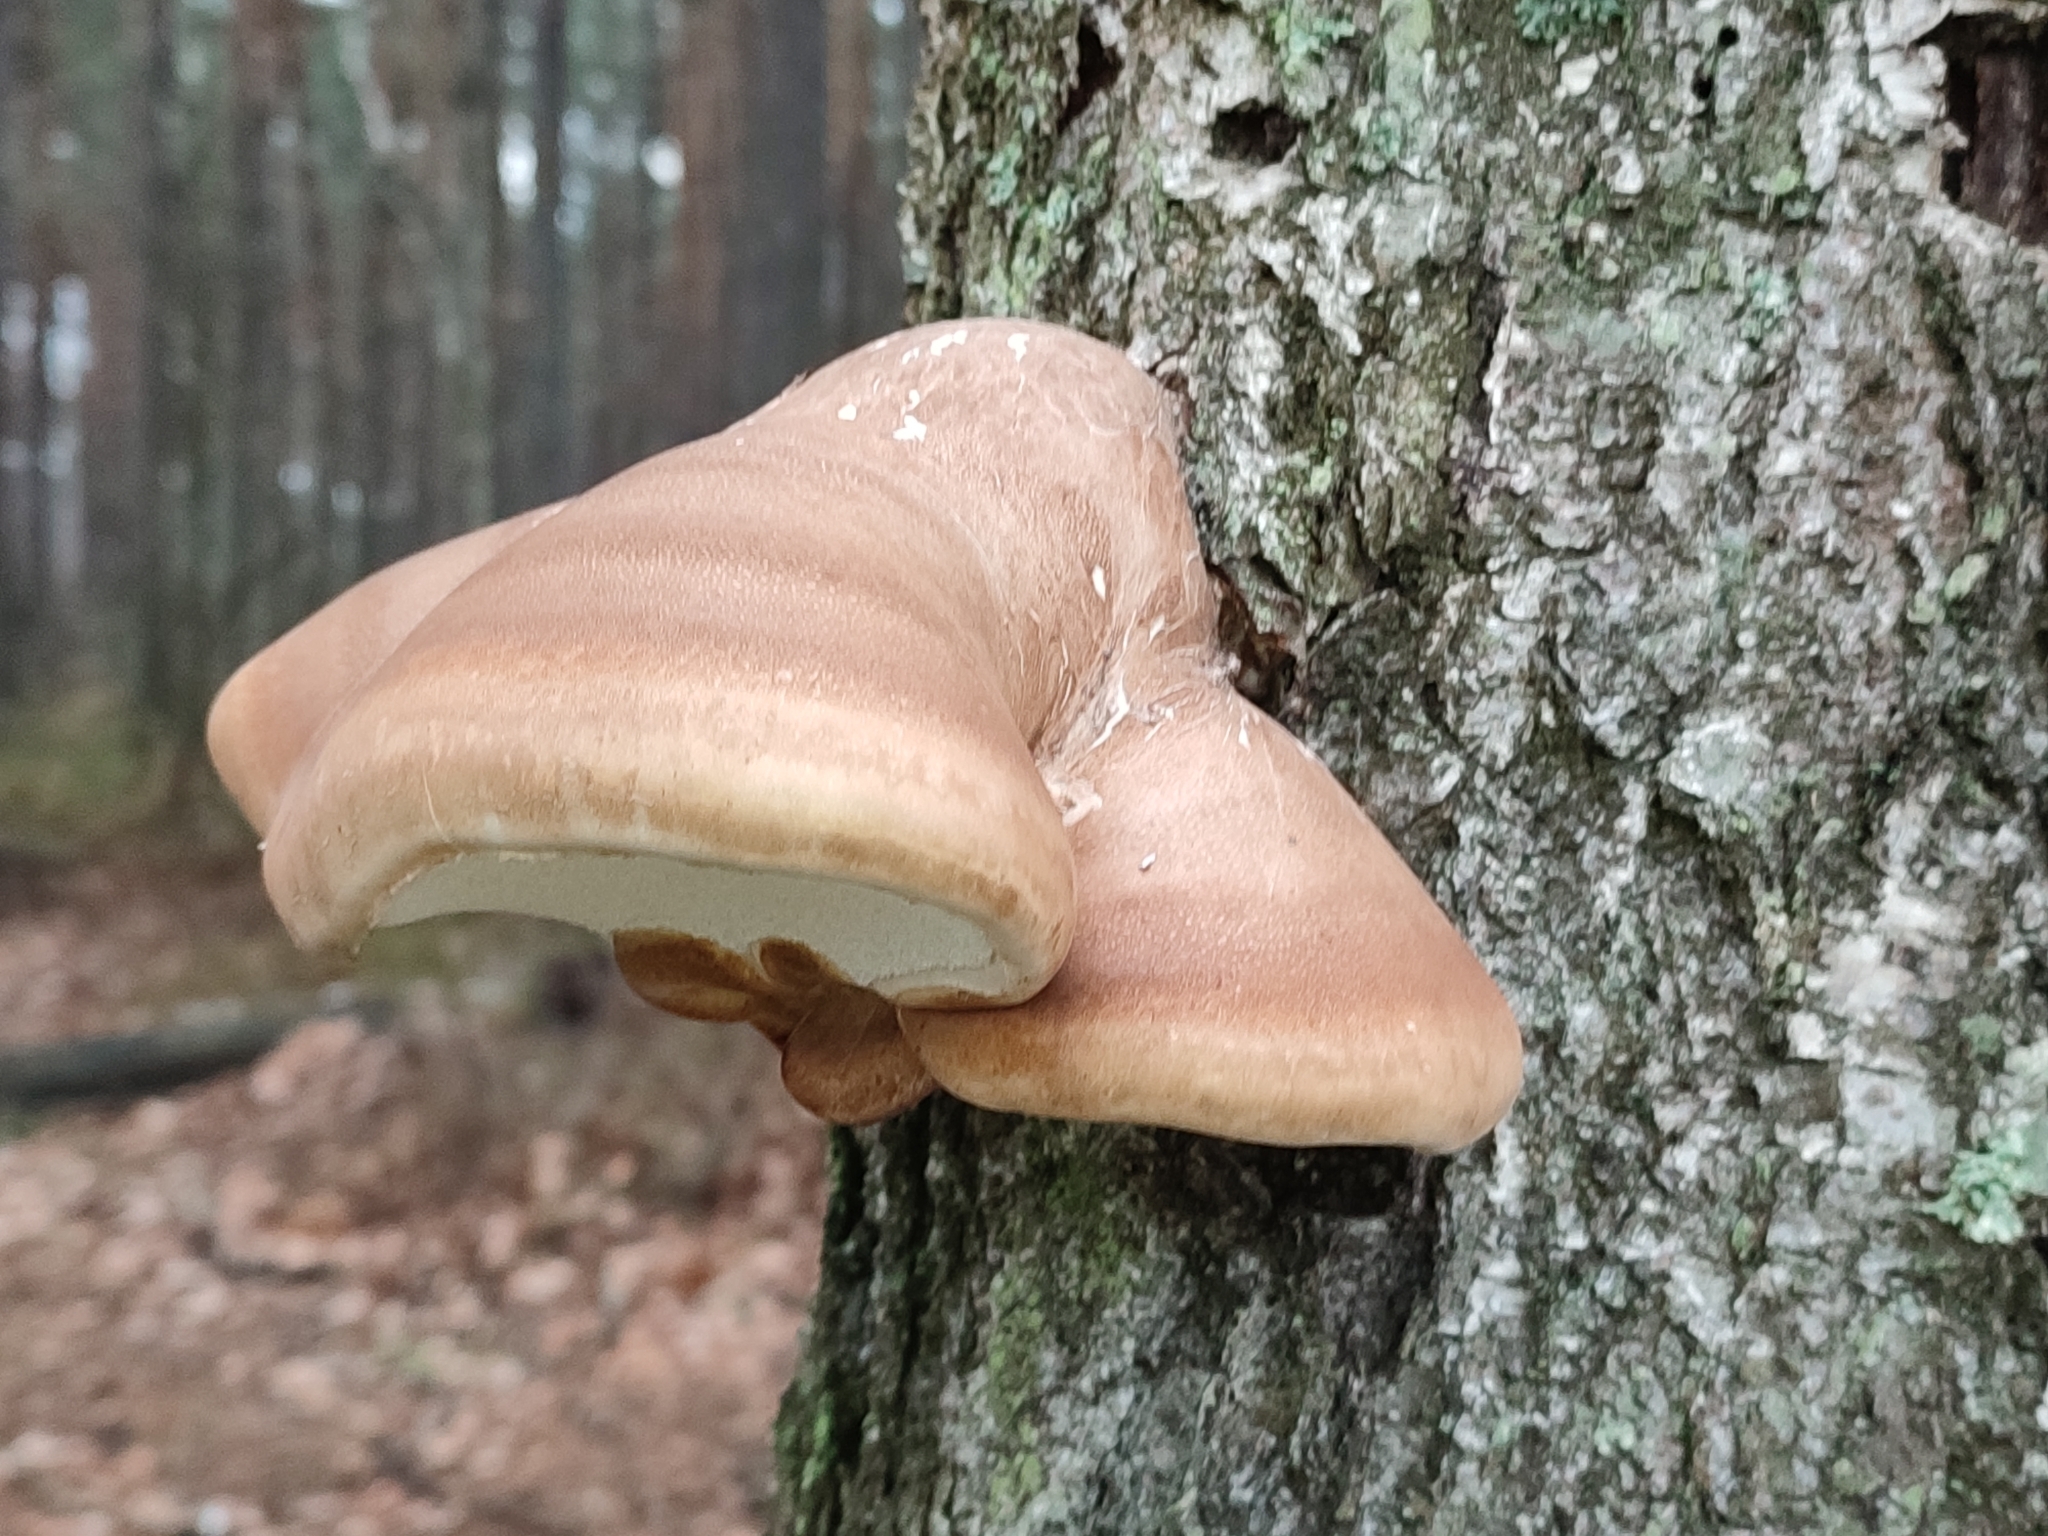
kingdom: Fungi
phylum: Basidiomycota
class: Agaricomycetes
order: Polyporales
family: Fomitopsidaceae
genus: Fomitopsis
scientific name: Fomitopsis betulina
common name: Birch polypore
